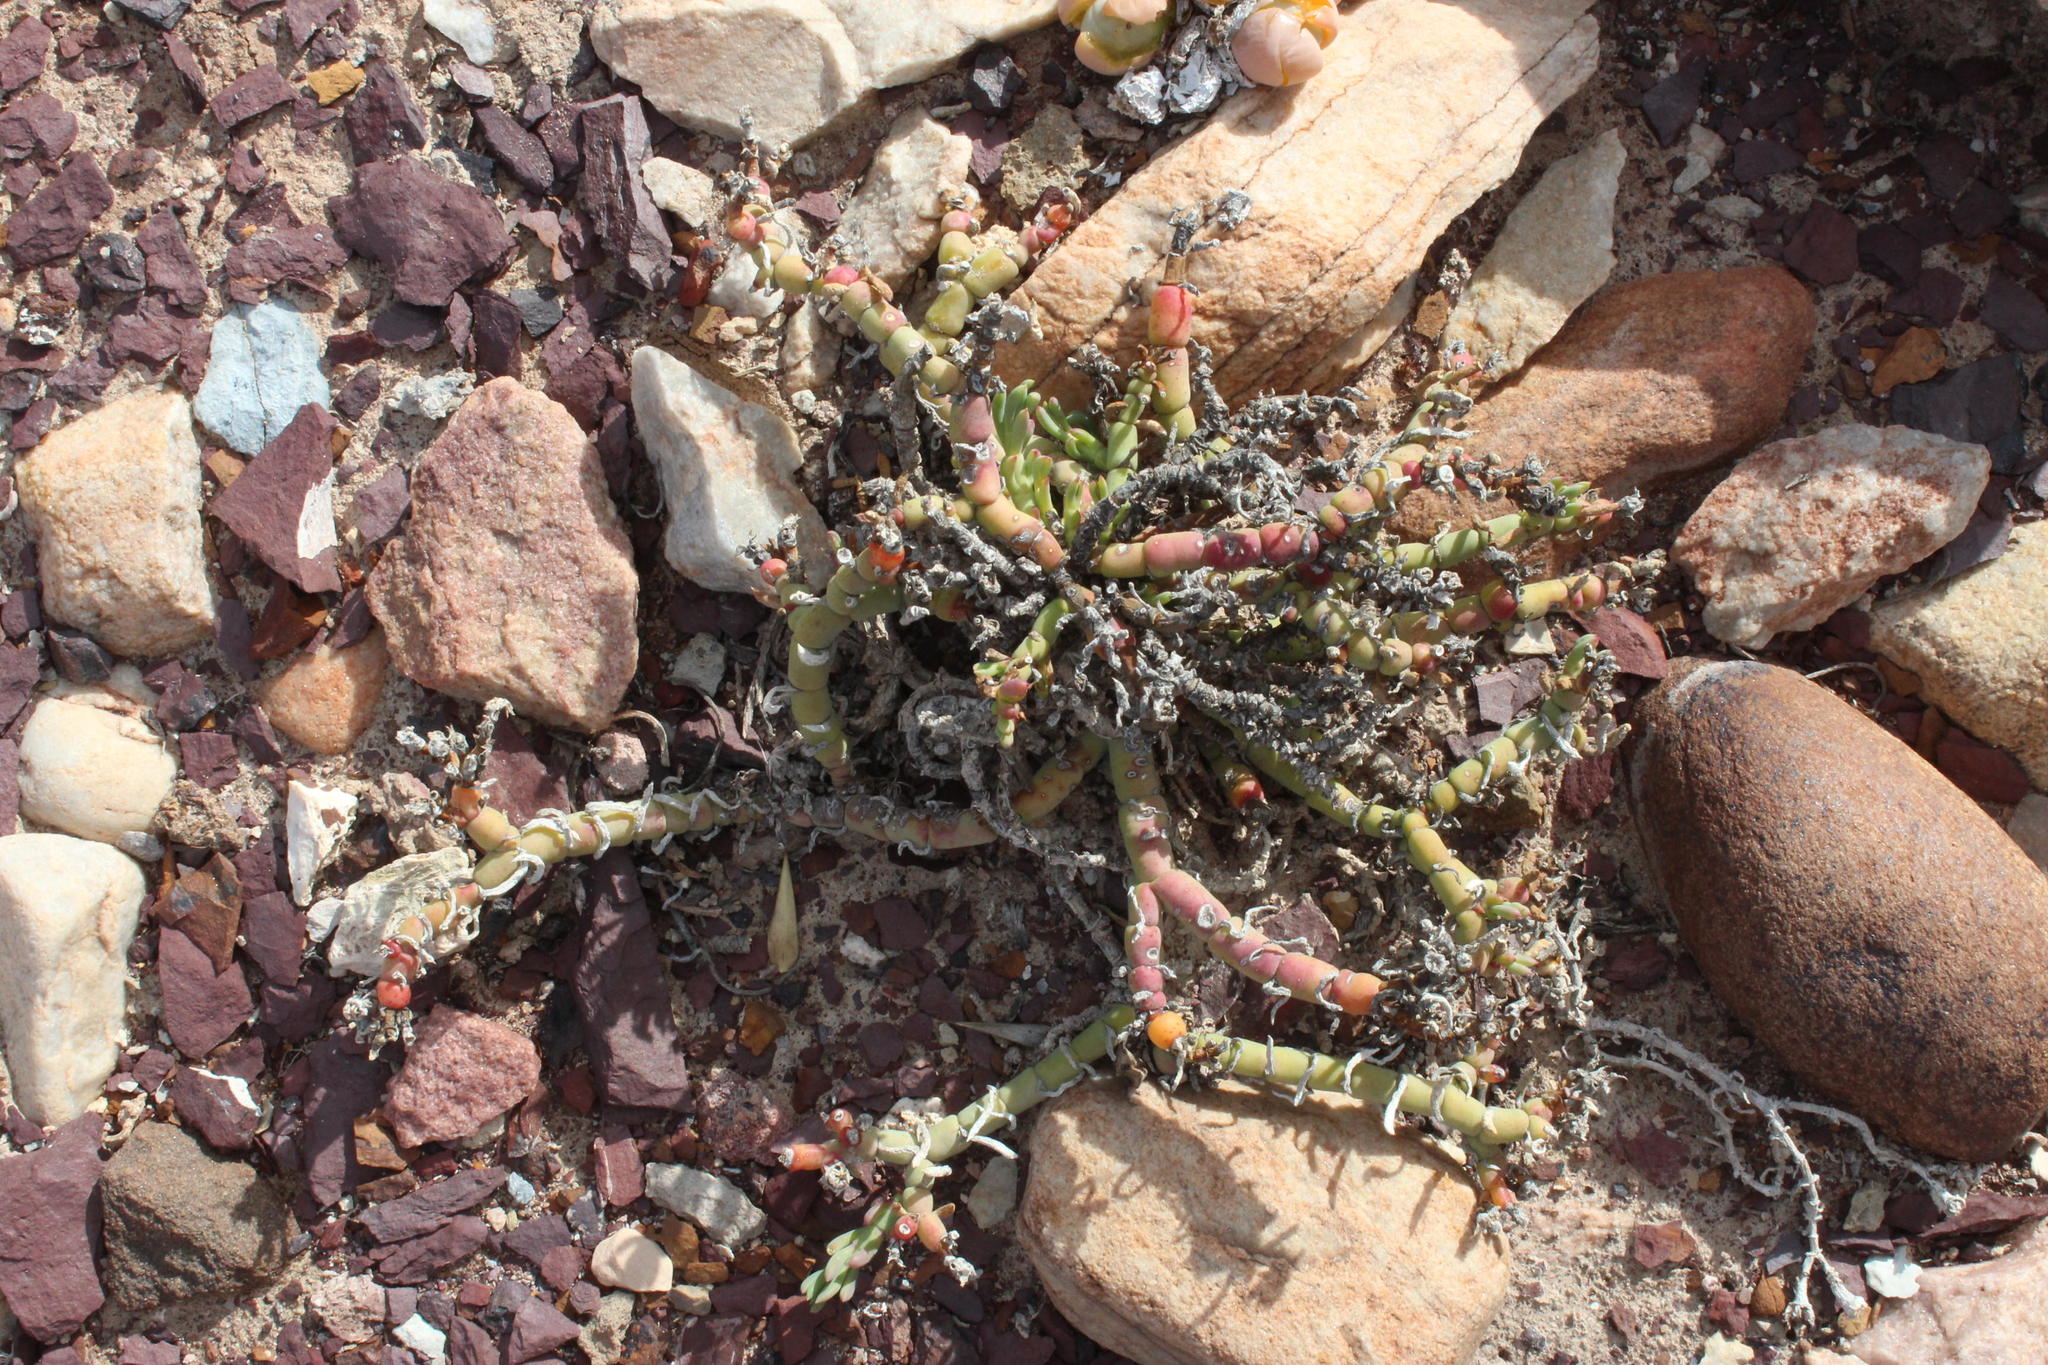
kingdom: Plantae
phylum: Tracheophyta
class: Magnoliopsida
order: Caryophyllales
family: Aizoaceae
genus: Mesembryanthemum
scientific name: Mesembryanthemum junceum
